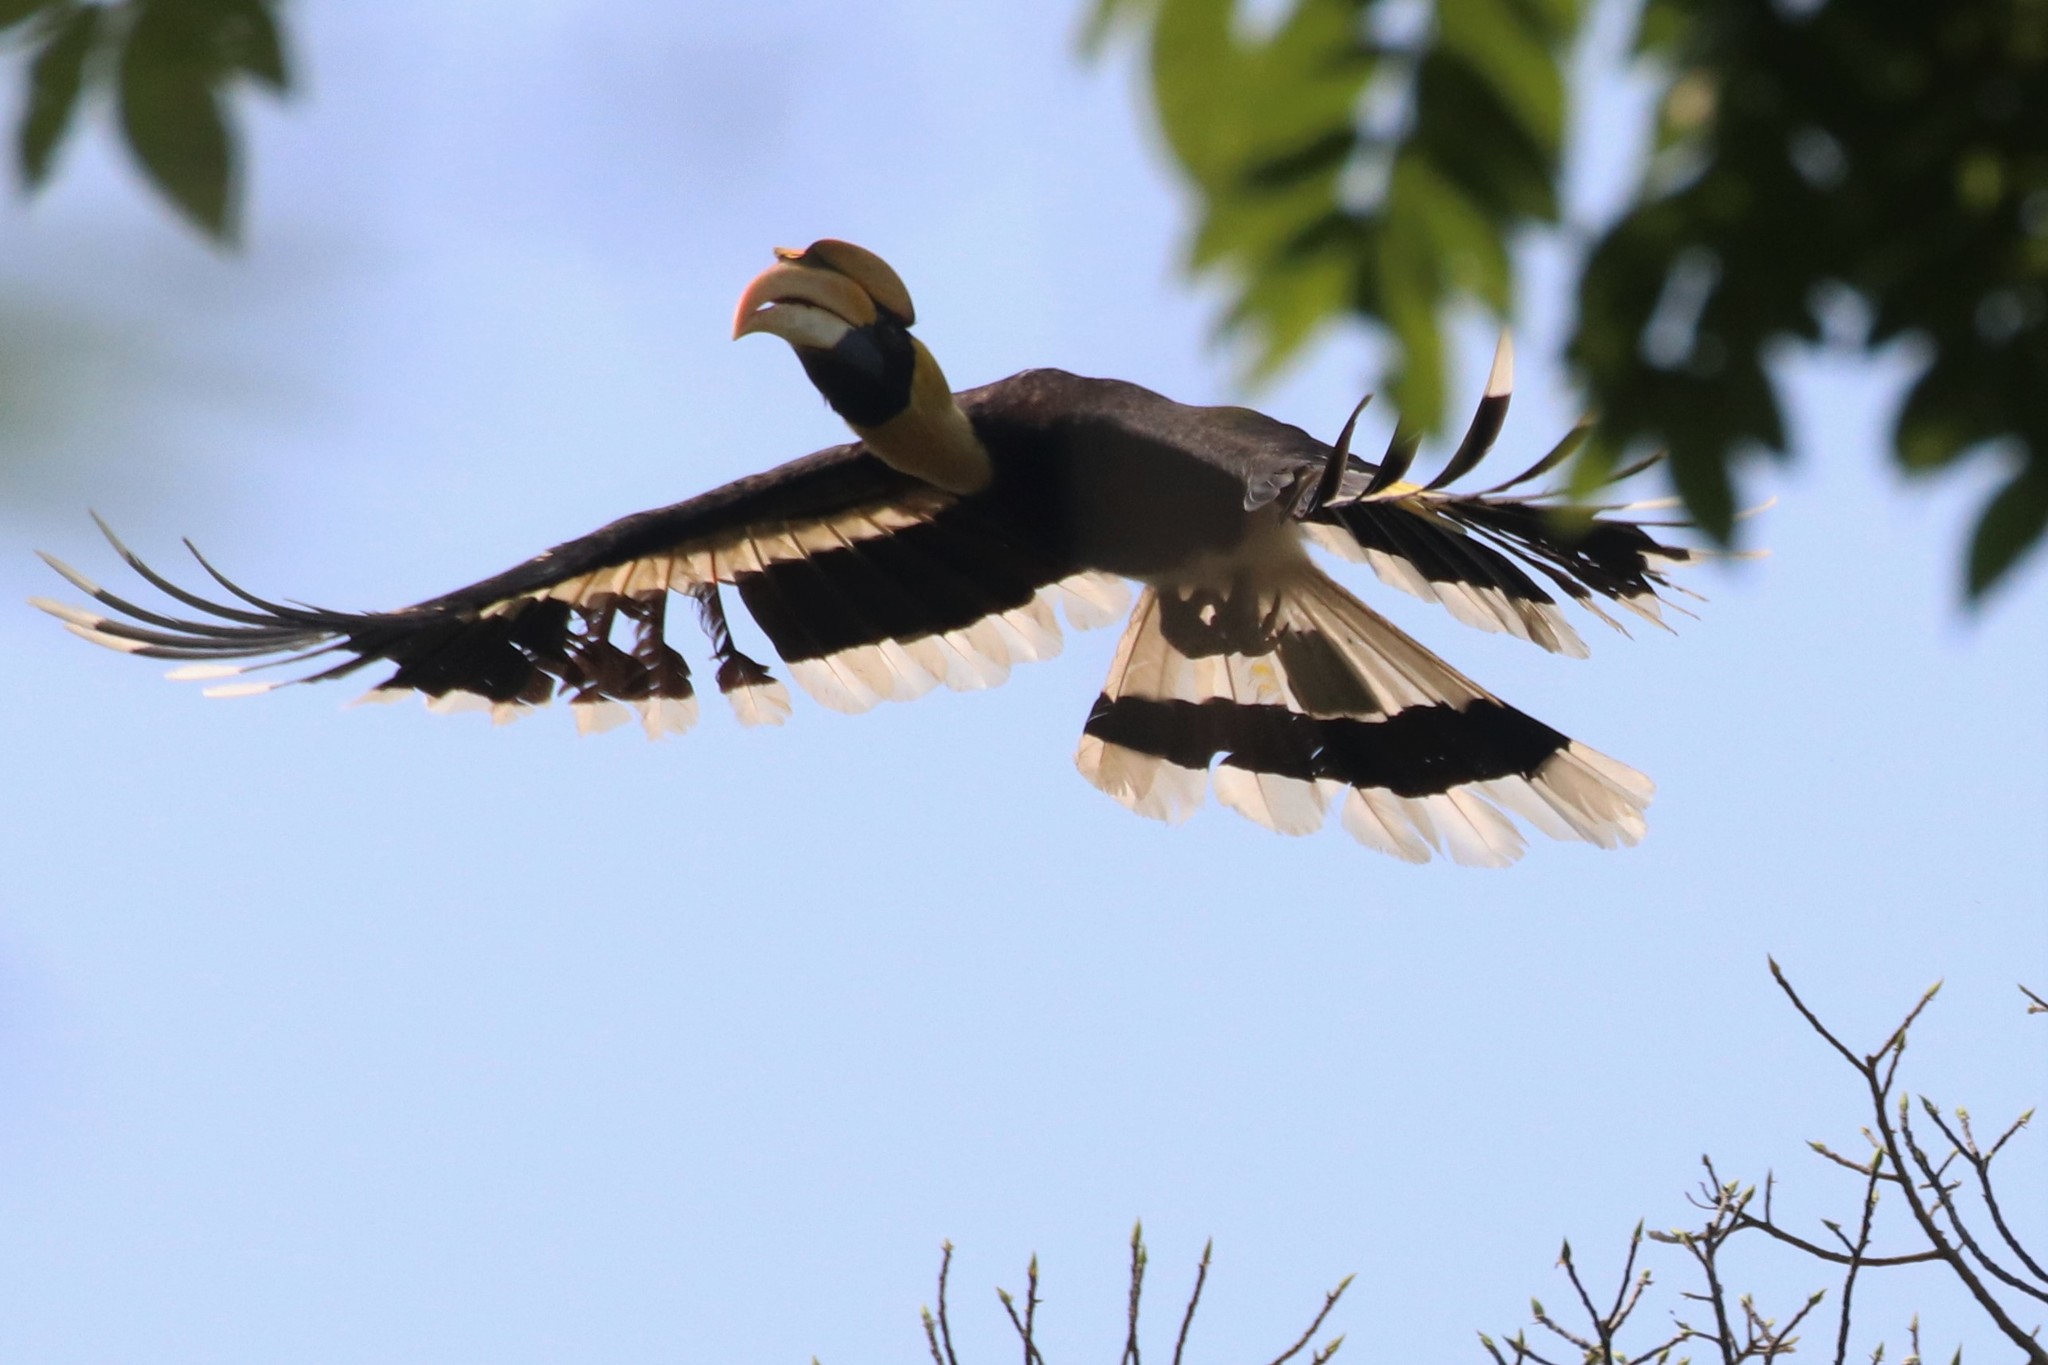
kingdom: Animalia
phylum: Chordata
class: Aves
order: Bucerotiformes
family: Bucerotidae
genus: Buceros
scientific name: Buceros bicornis
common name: Great hornbill
